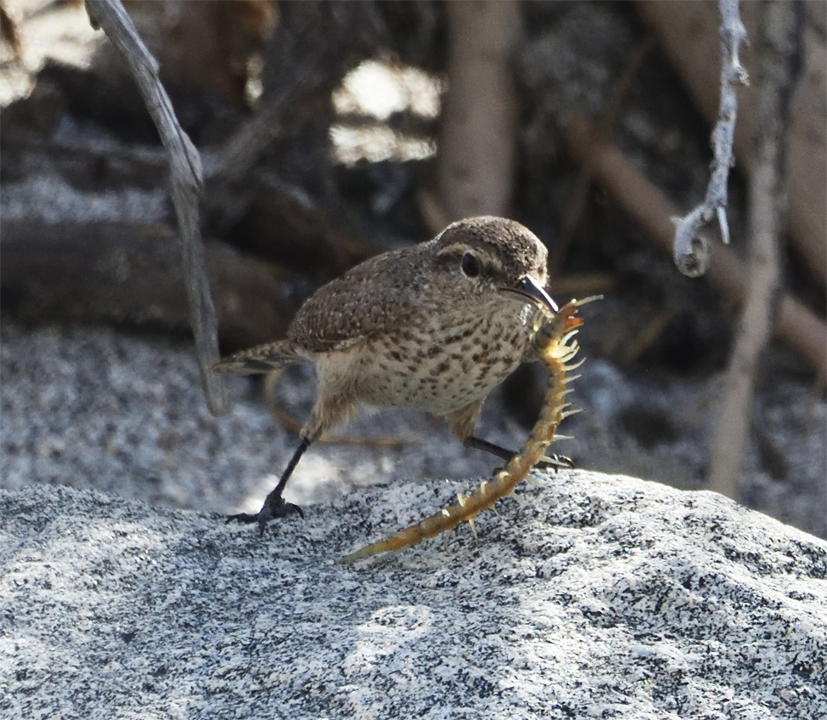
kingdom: Animalia
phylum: Chordata
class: Aves
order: Passeriformes
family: Troglodytidae
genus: Salpinctes
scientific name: Salpinctes obsoletus
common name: Rock wren
